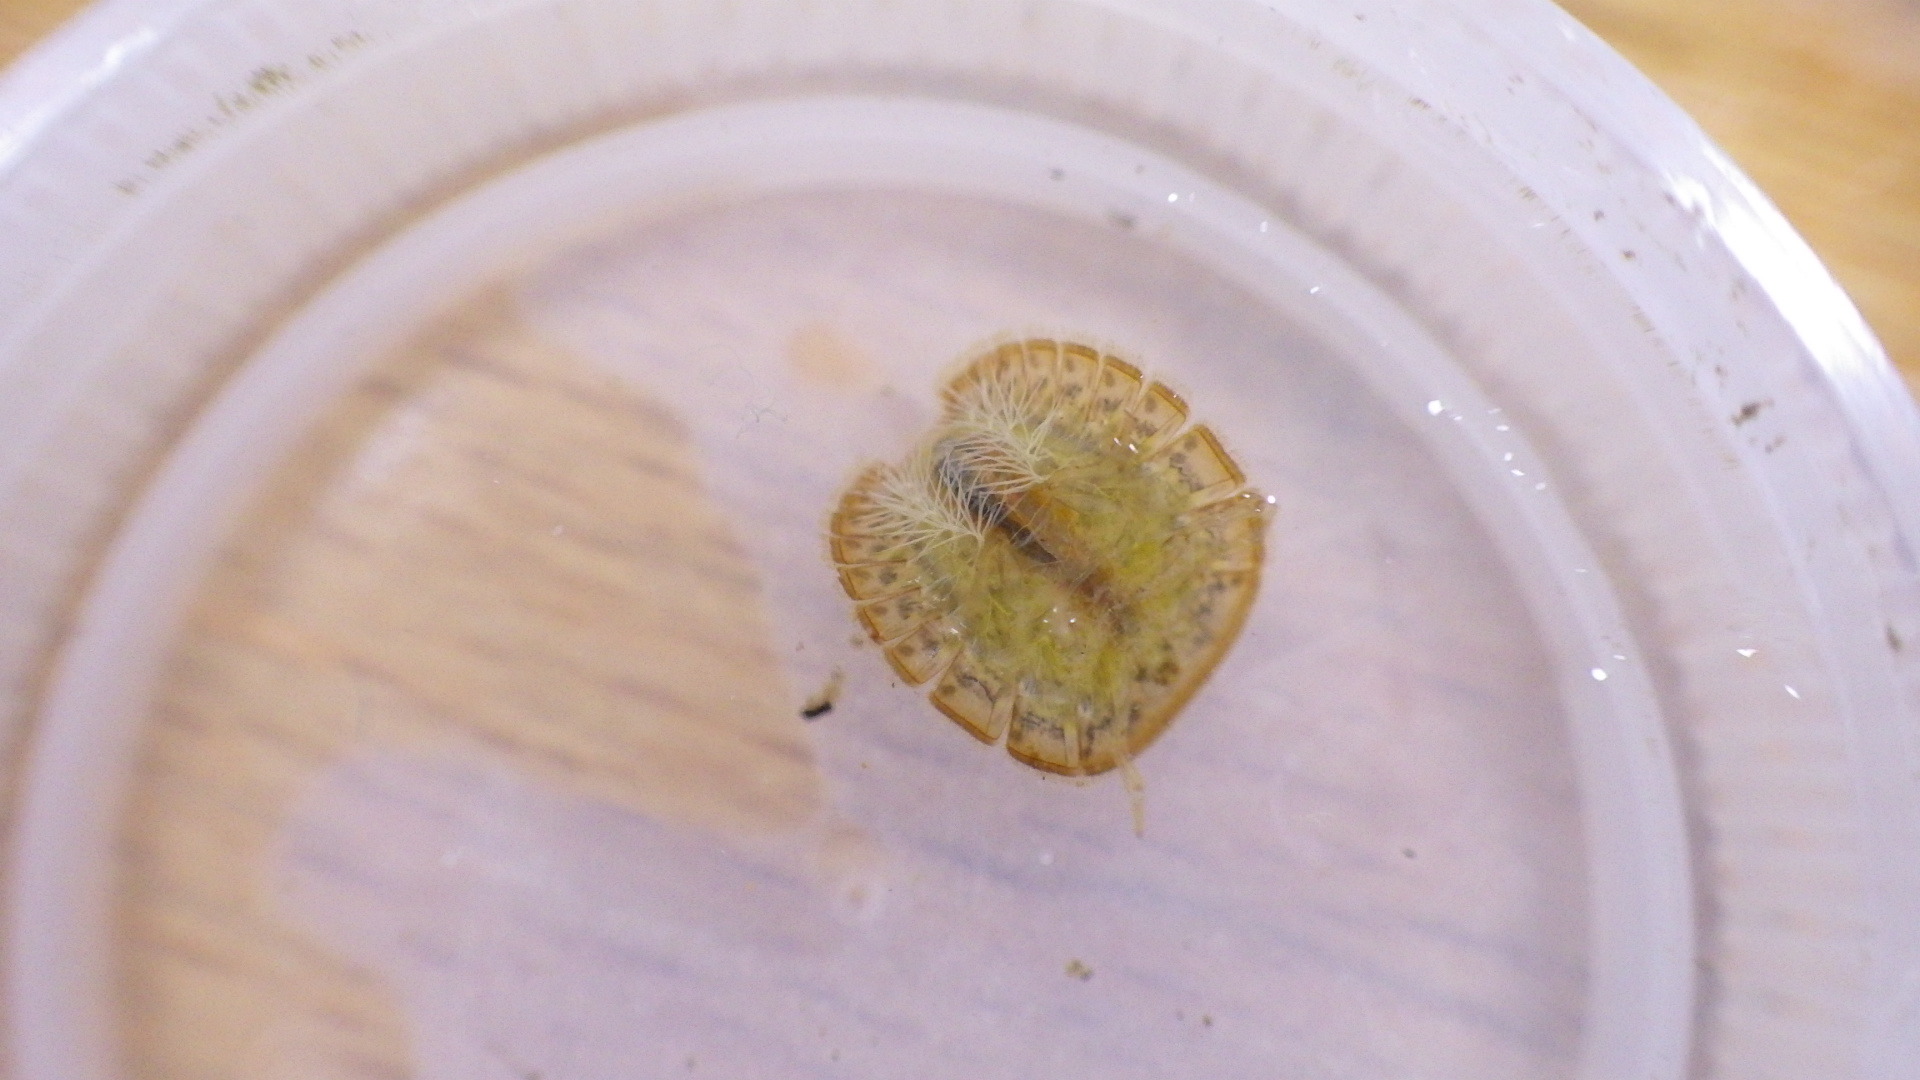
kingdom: Animalia
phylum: Arthropoda
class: Insecta
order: Coleoptera
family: Psephenidae
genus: Psephenus
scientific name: Psephenus herricki
